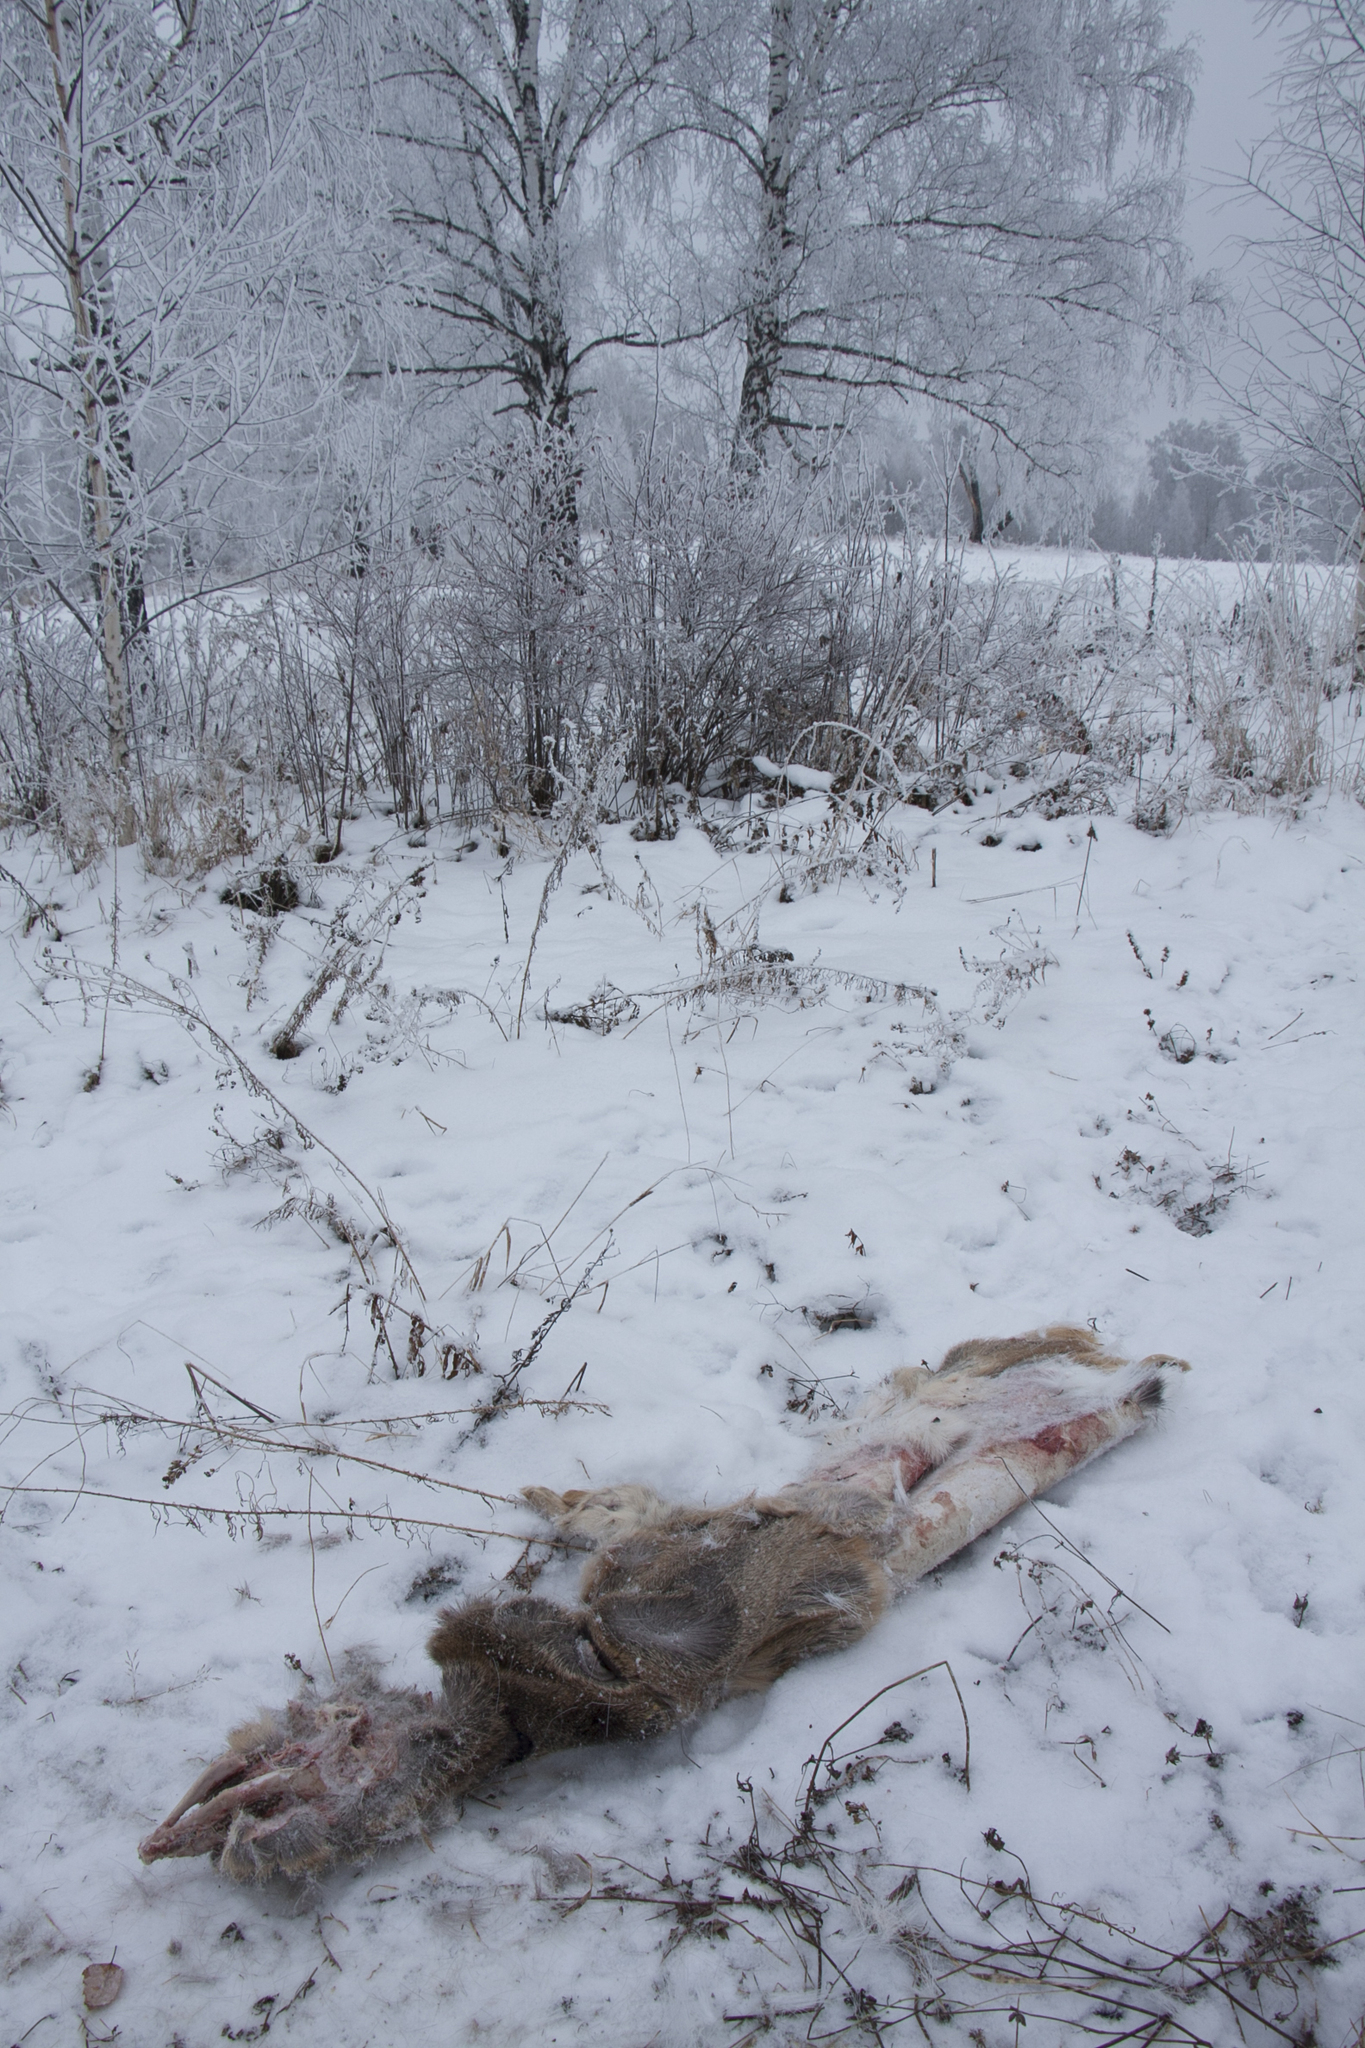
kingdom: Animalia
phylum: Chordata
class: Mammalia
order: Artiodactyla
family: Cervidae
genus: Capreolus
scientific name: Capreolus pygargus
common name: Siberian roe
